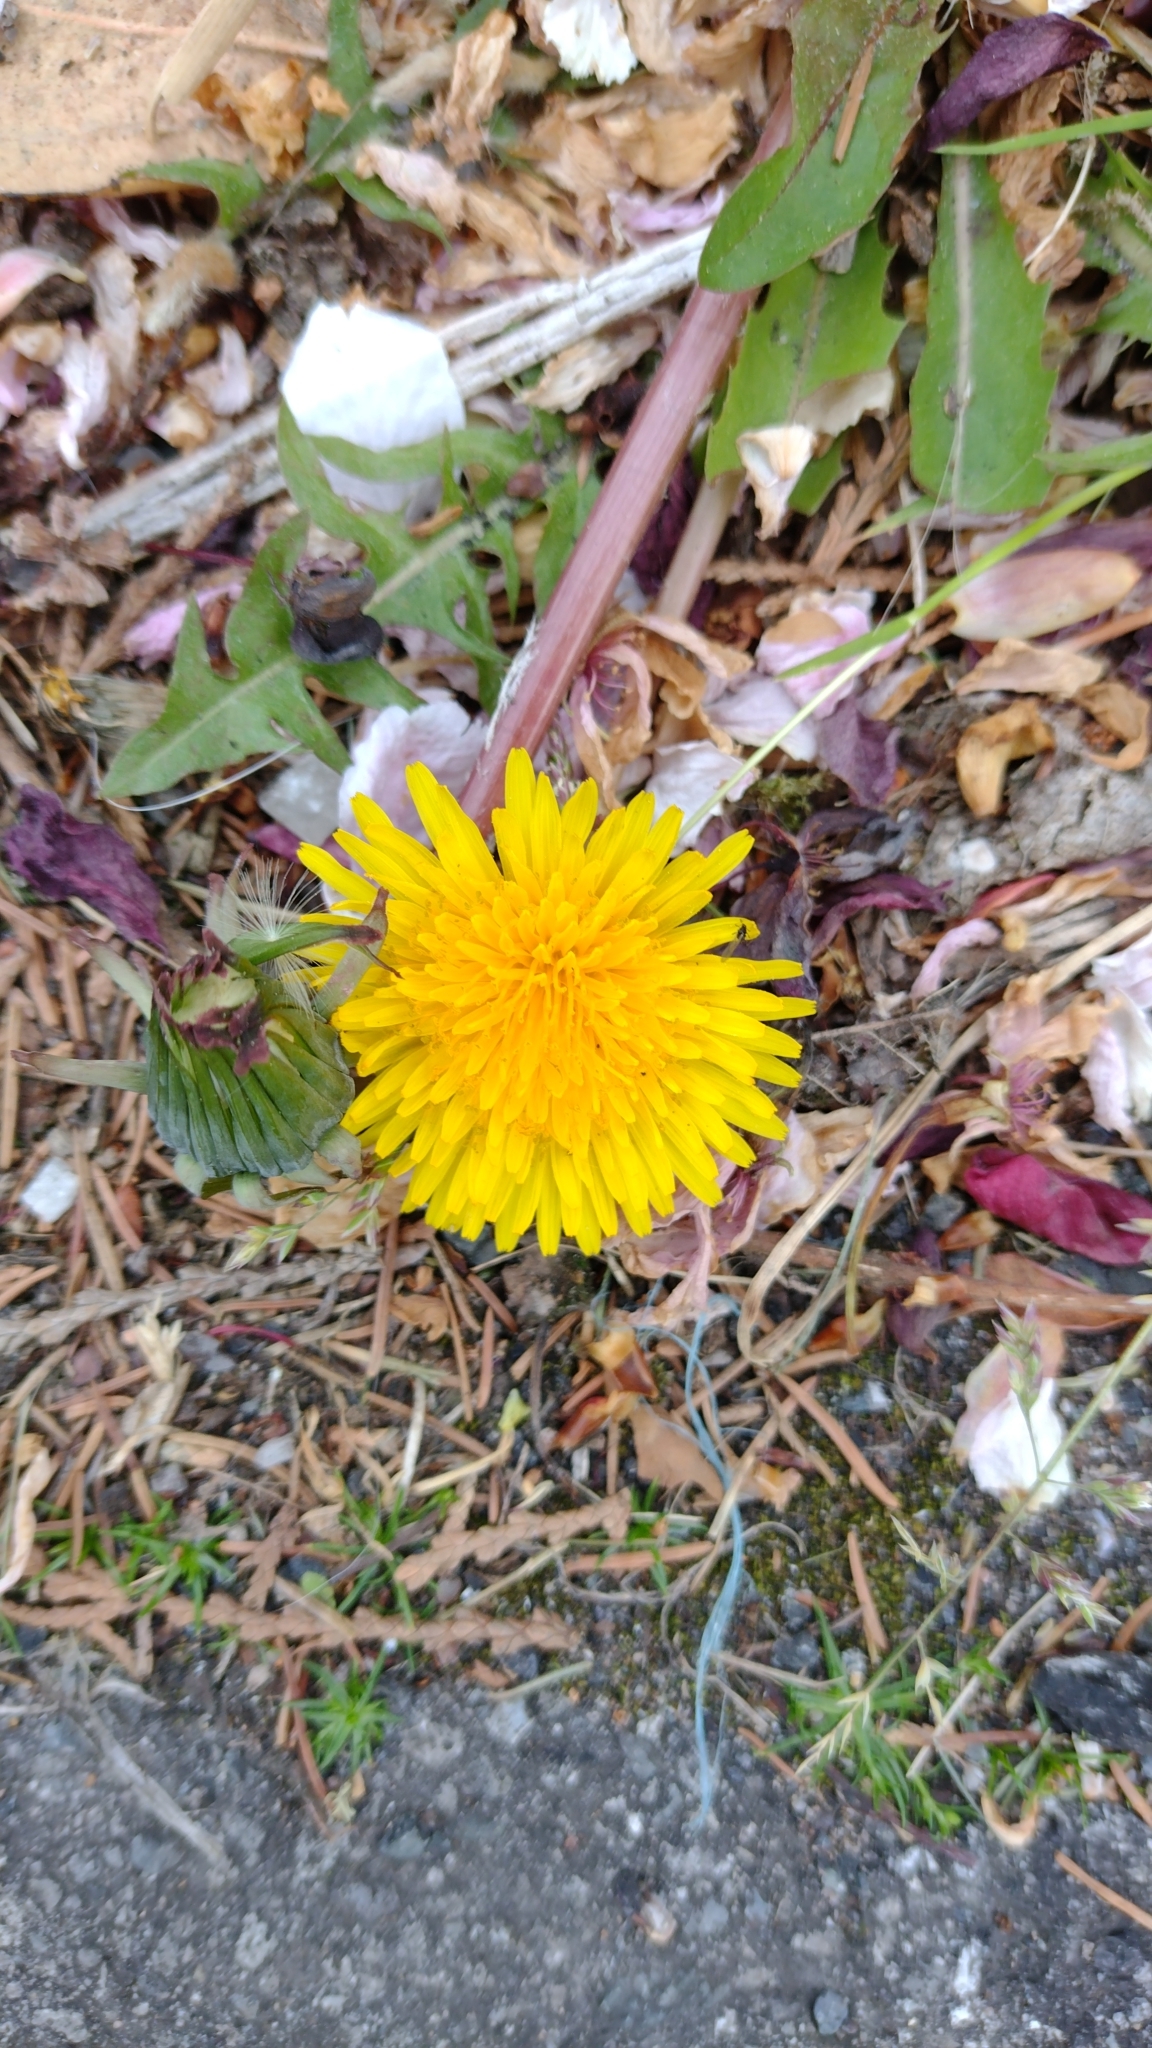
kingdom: Plantae
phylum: Tracheophyta
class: Magnoliopsida
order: Asterales
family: Asteraceae
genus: Taraxacum
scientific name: Taraxacum officinale
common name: Common dandelion
